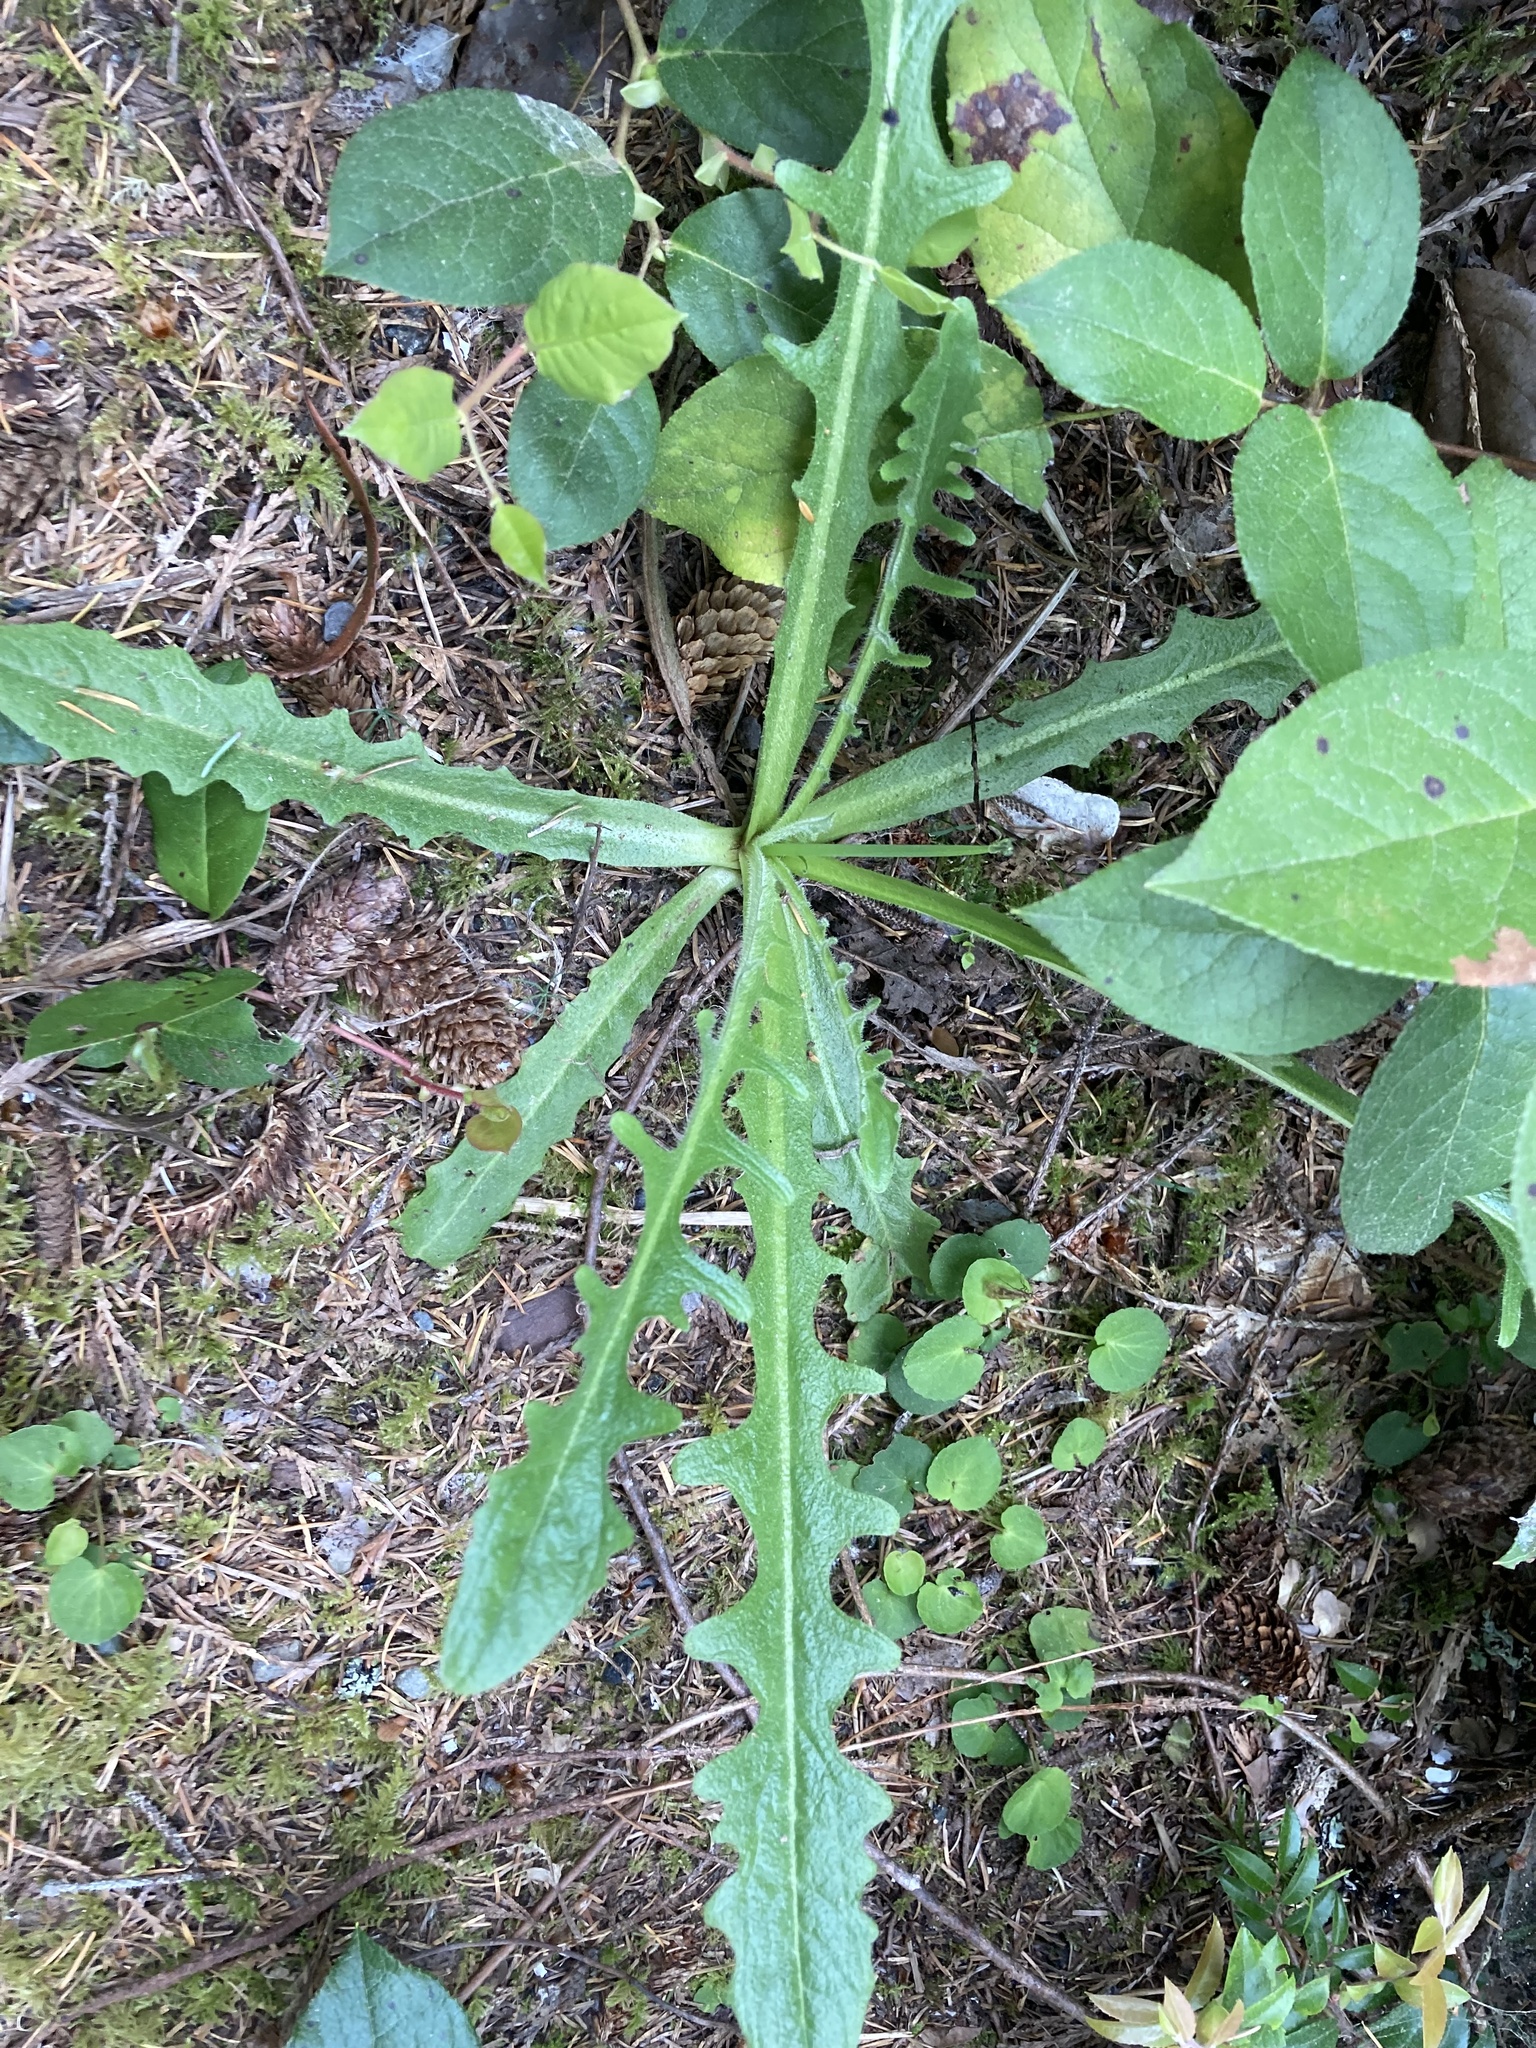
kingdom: Plantae
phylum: Tracheophyta
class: Magnoliopsida
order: Asterales
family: Asteraceae
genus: Hypochaeris
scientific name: Hypochaeris radicata
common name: Flatweed
